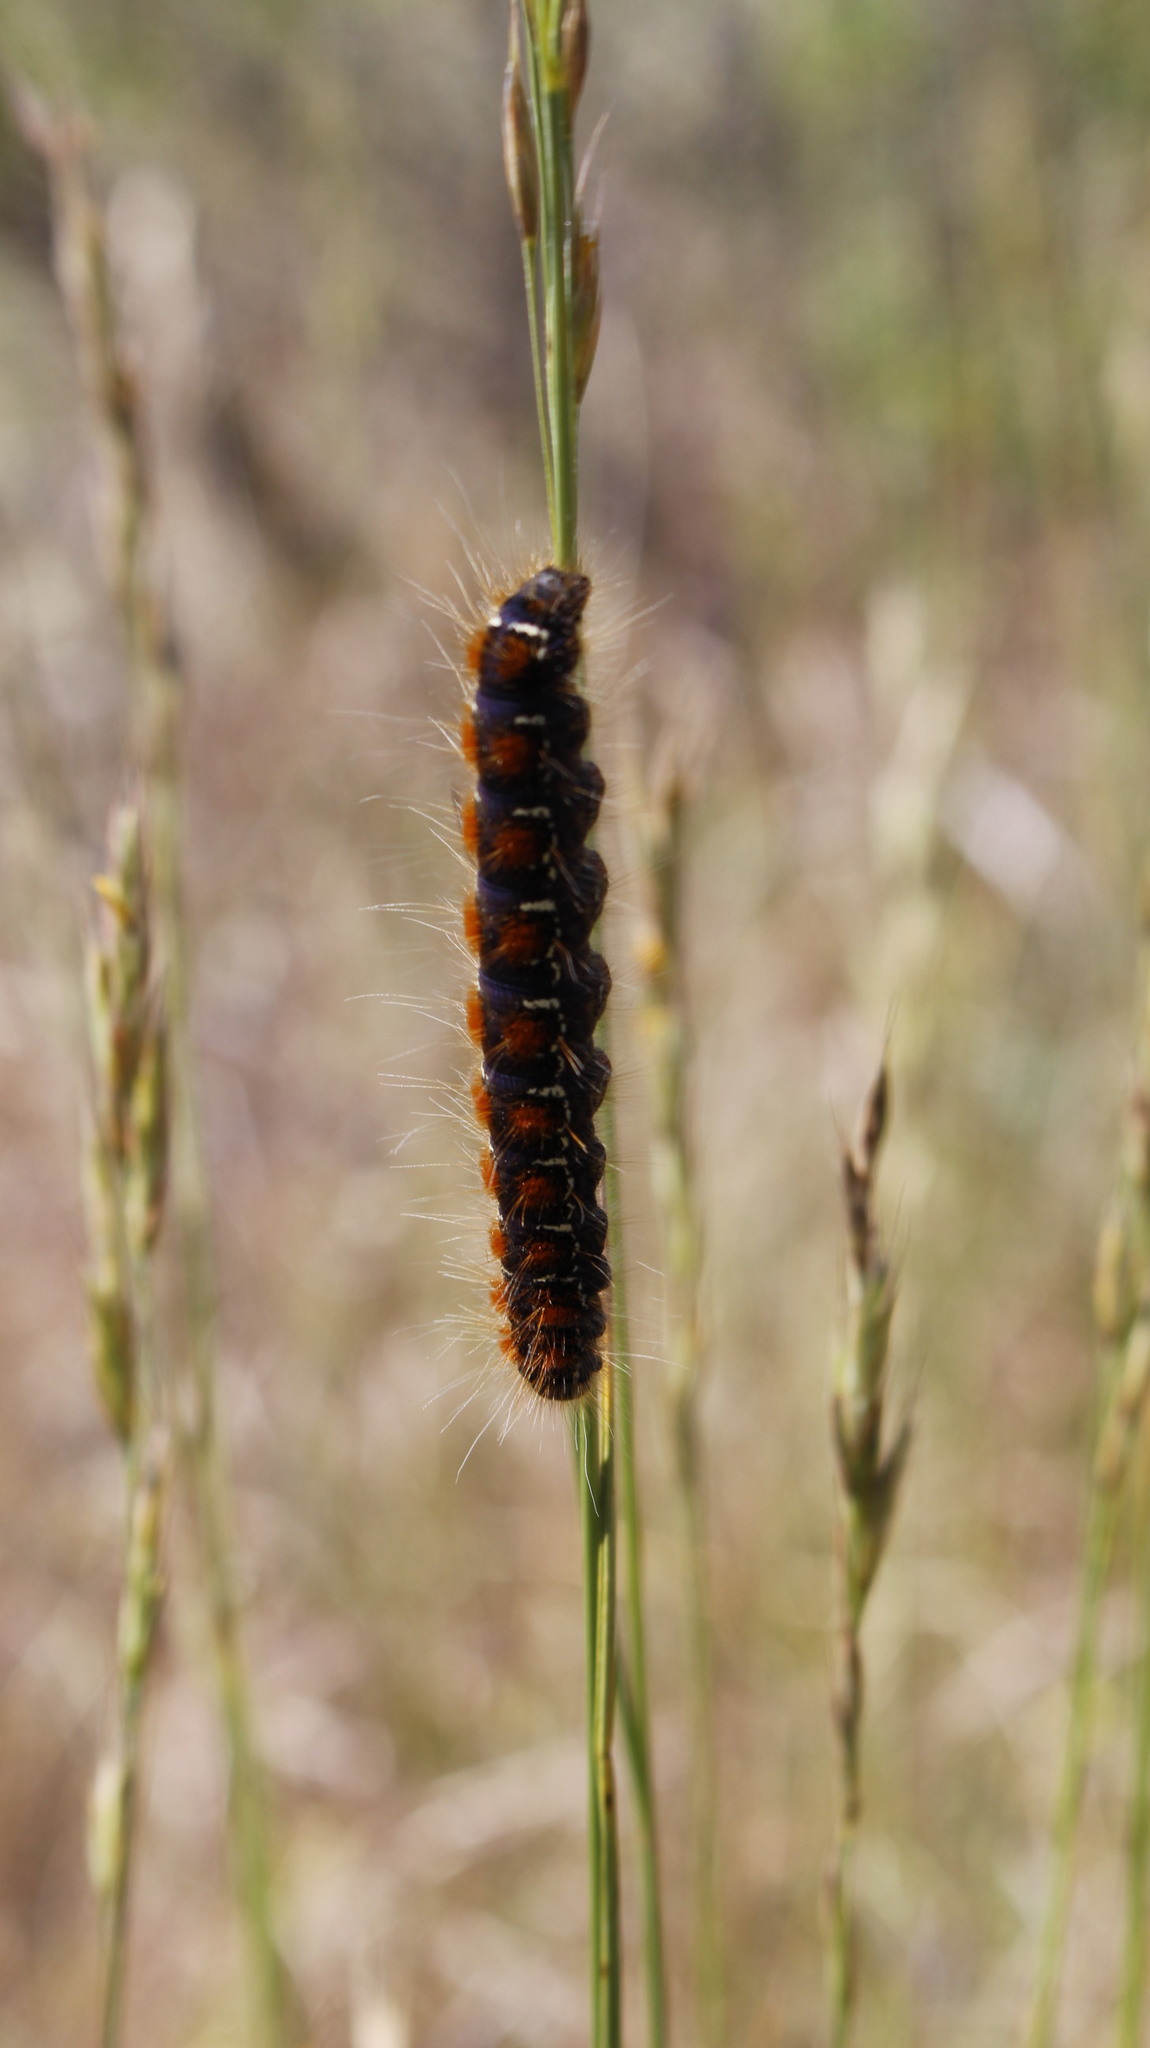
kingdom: Animalia
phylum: Arthropoda
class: Insecta
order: Lepidoptera
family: Lasiocampidae
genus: Eriogaster
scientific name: Eriogaster lanestris
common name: Small eggar
